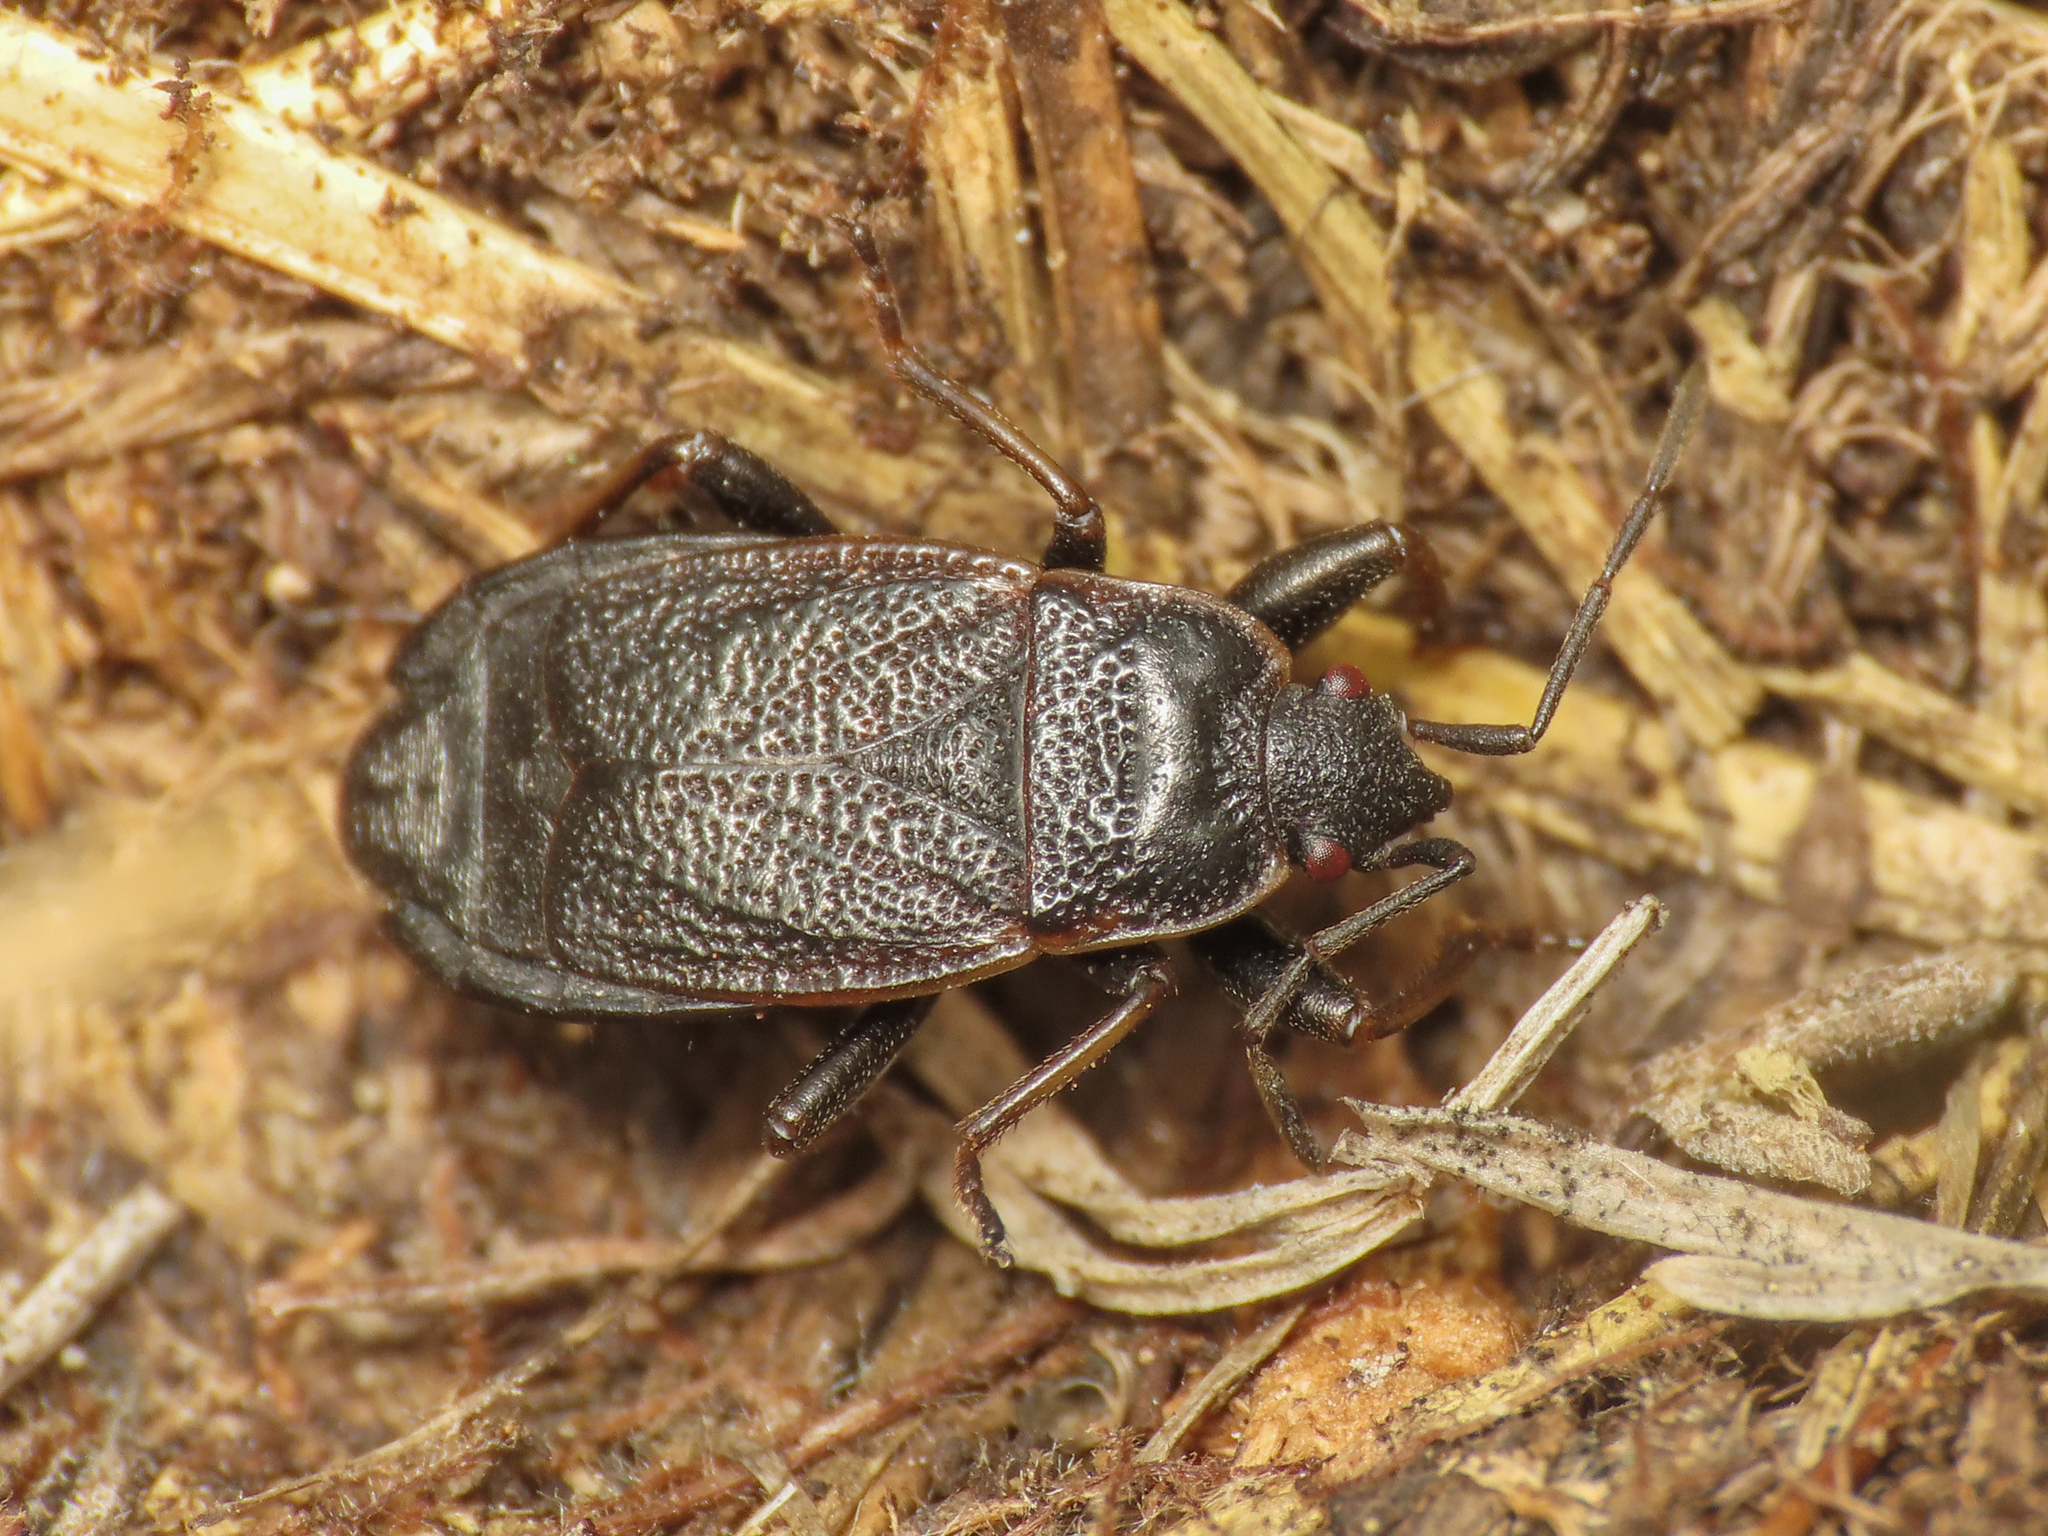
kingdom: Animalia
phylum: Arthropoda
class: Insecta
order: Hemiptera
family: Pyrrhocoridae
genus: Pyrrhocoris
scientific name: Pyrrhocoris marginatus
